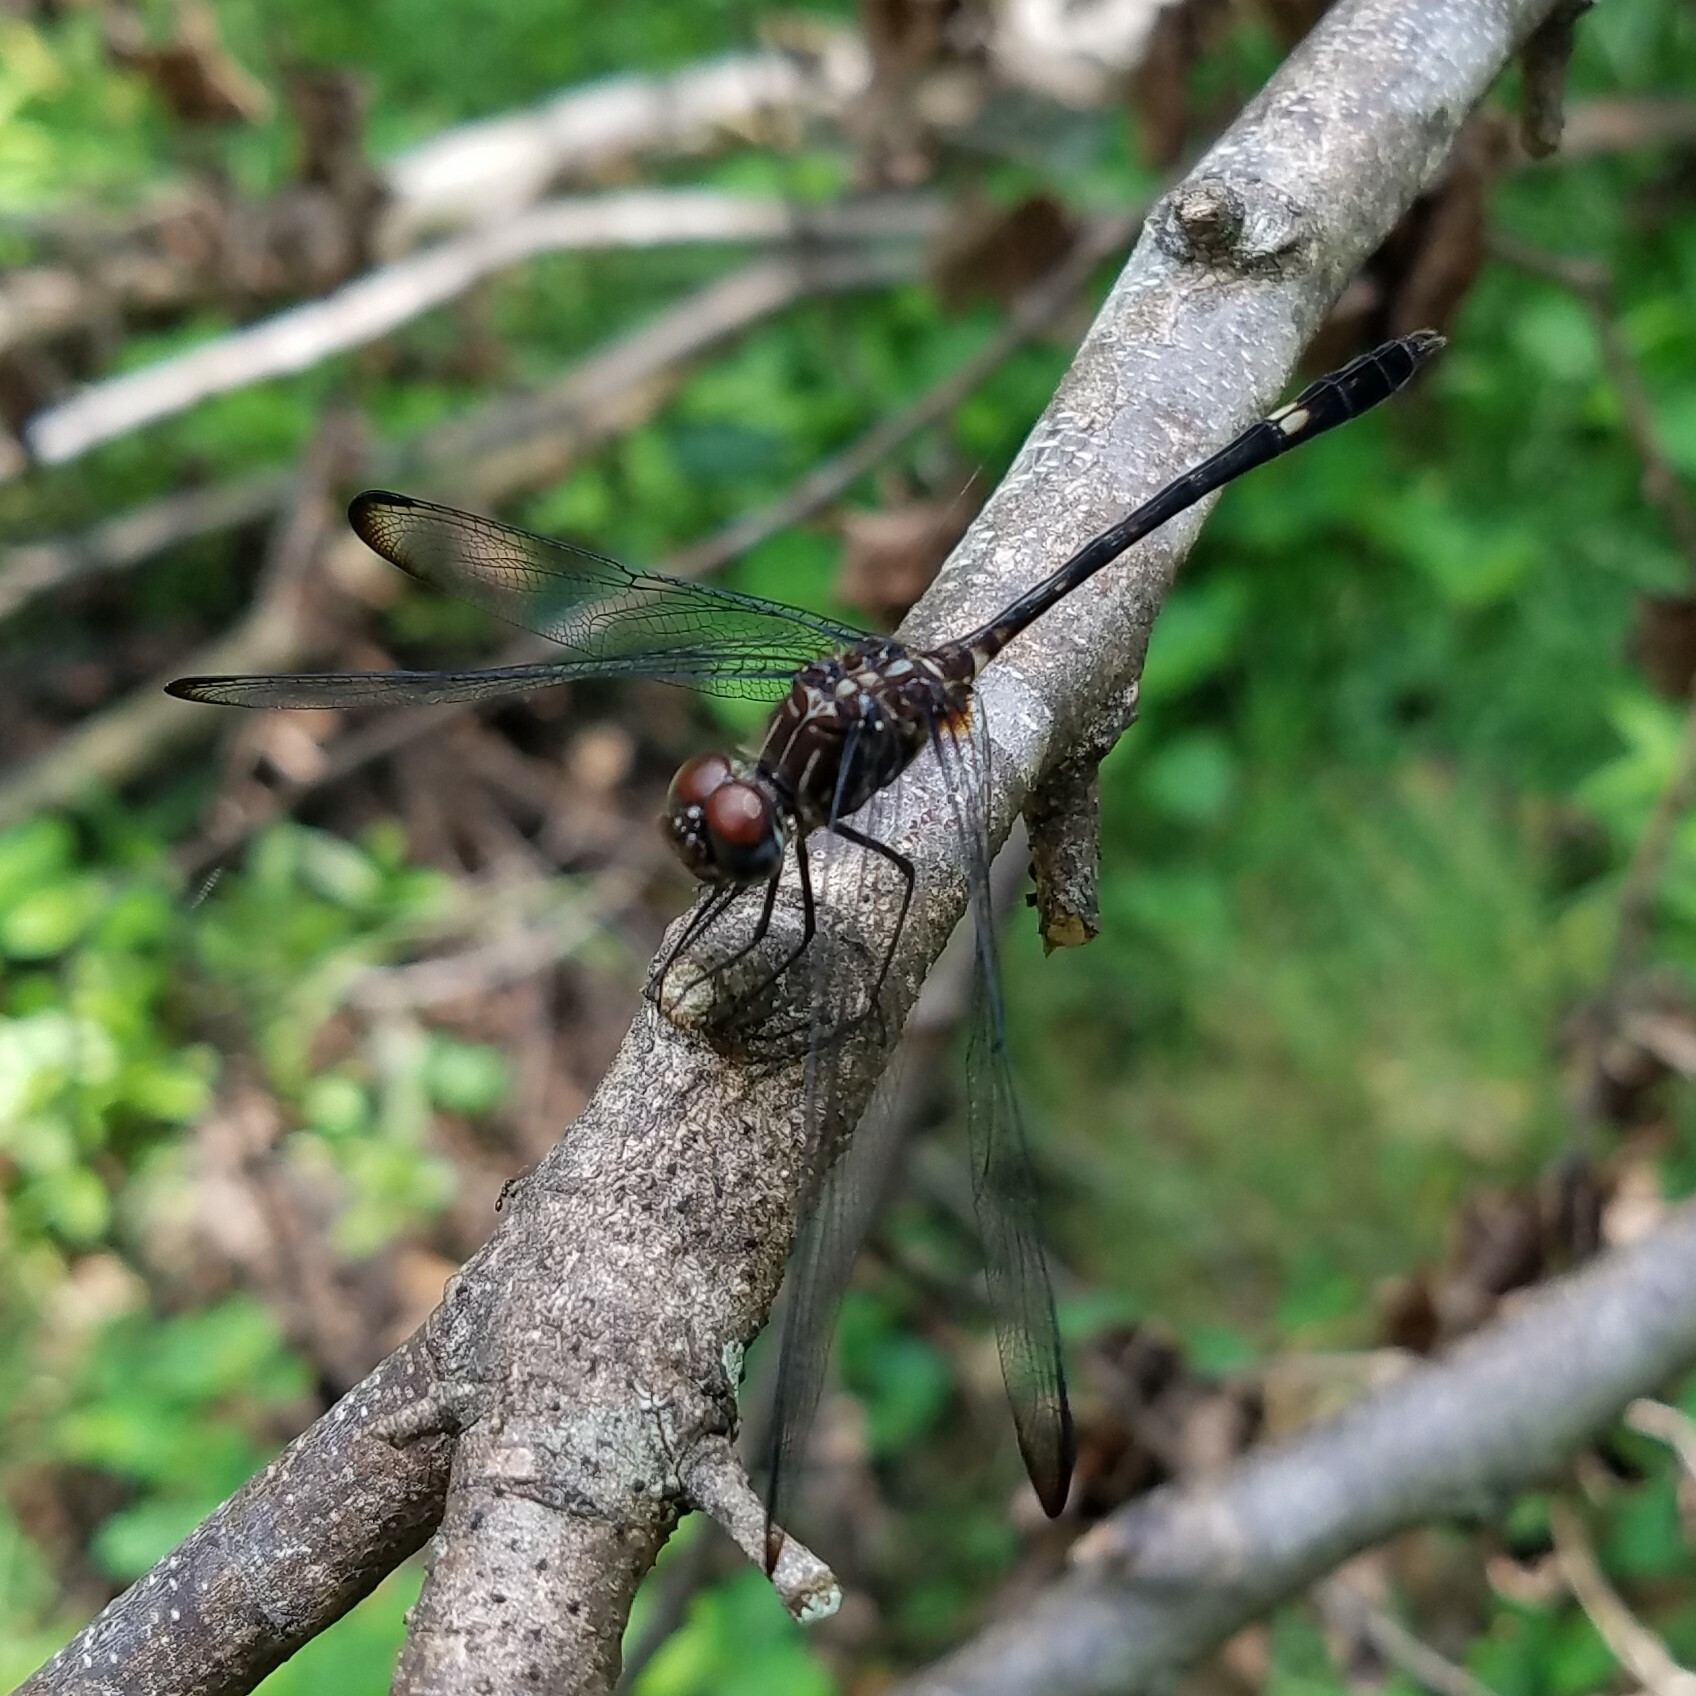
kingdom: Animalia
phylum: Arthropoda
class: Insecta
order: Odonata
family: Libellulidae
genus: Dythemis
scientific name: Dythemis velox
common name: Swift setwing
